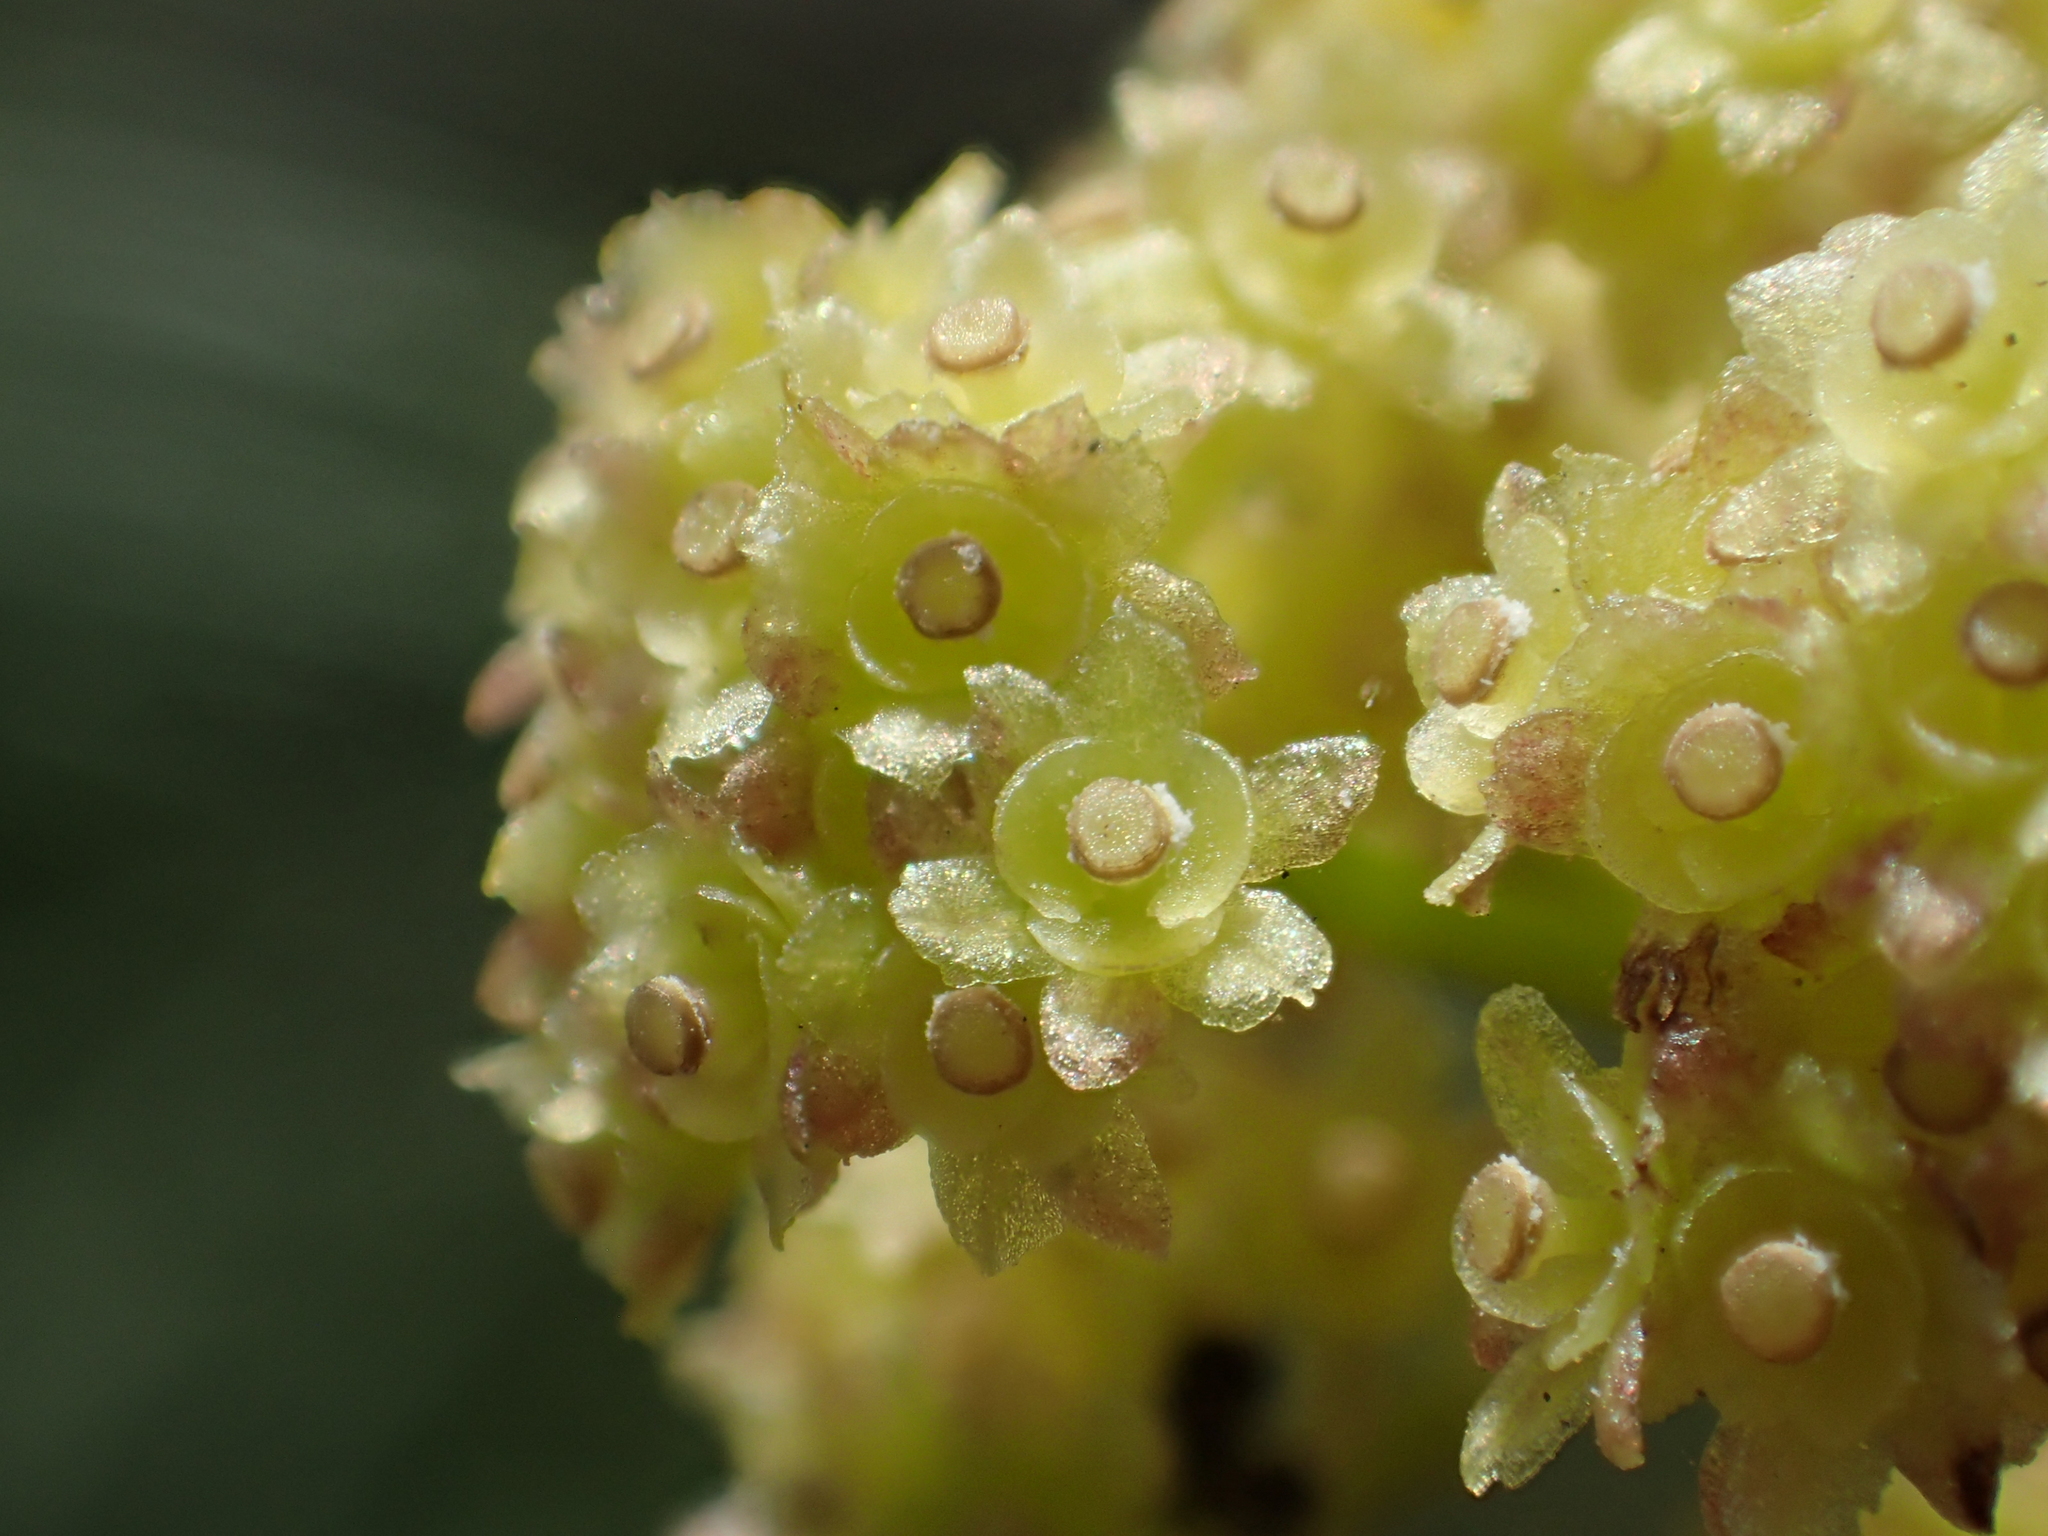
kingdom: Plantae
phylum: Tracheophyta
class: Magnoliopsida
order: Ranunculales
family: Menispermaceae
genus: Stephania
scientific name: Stephania japonica
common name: Snake vine
